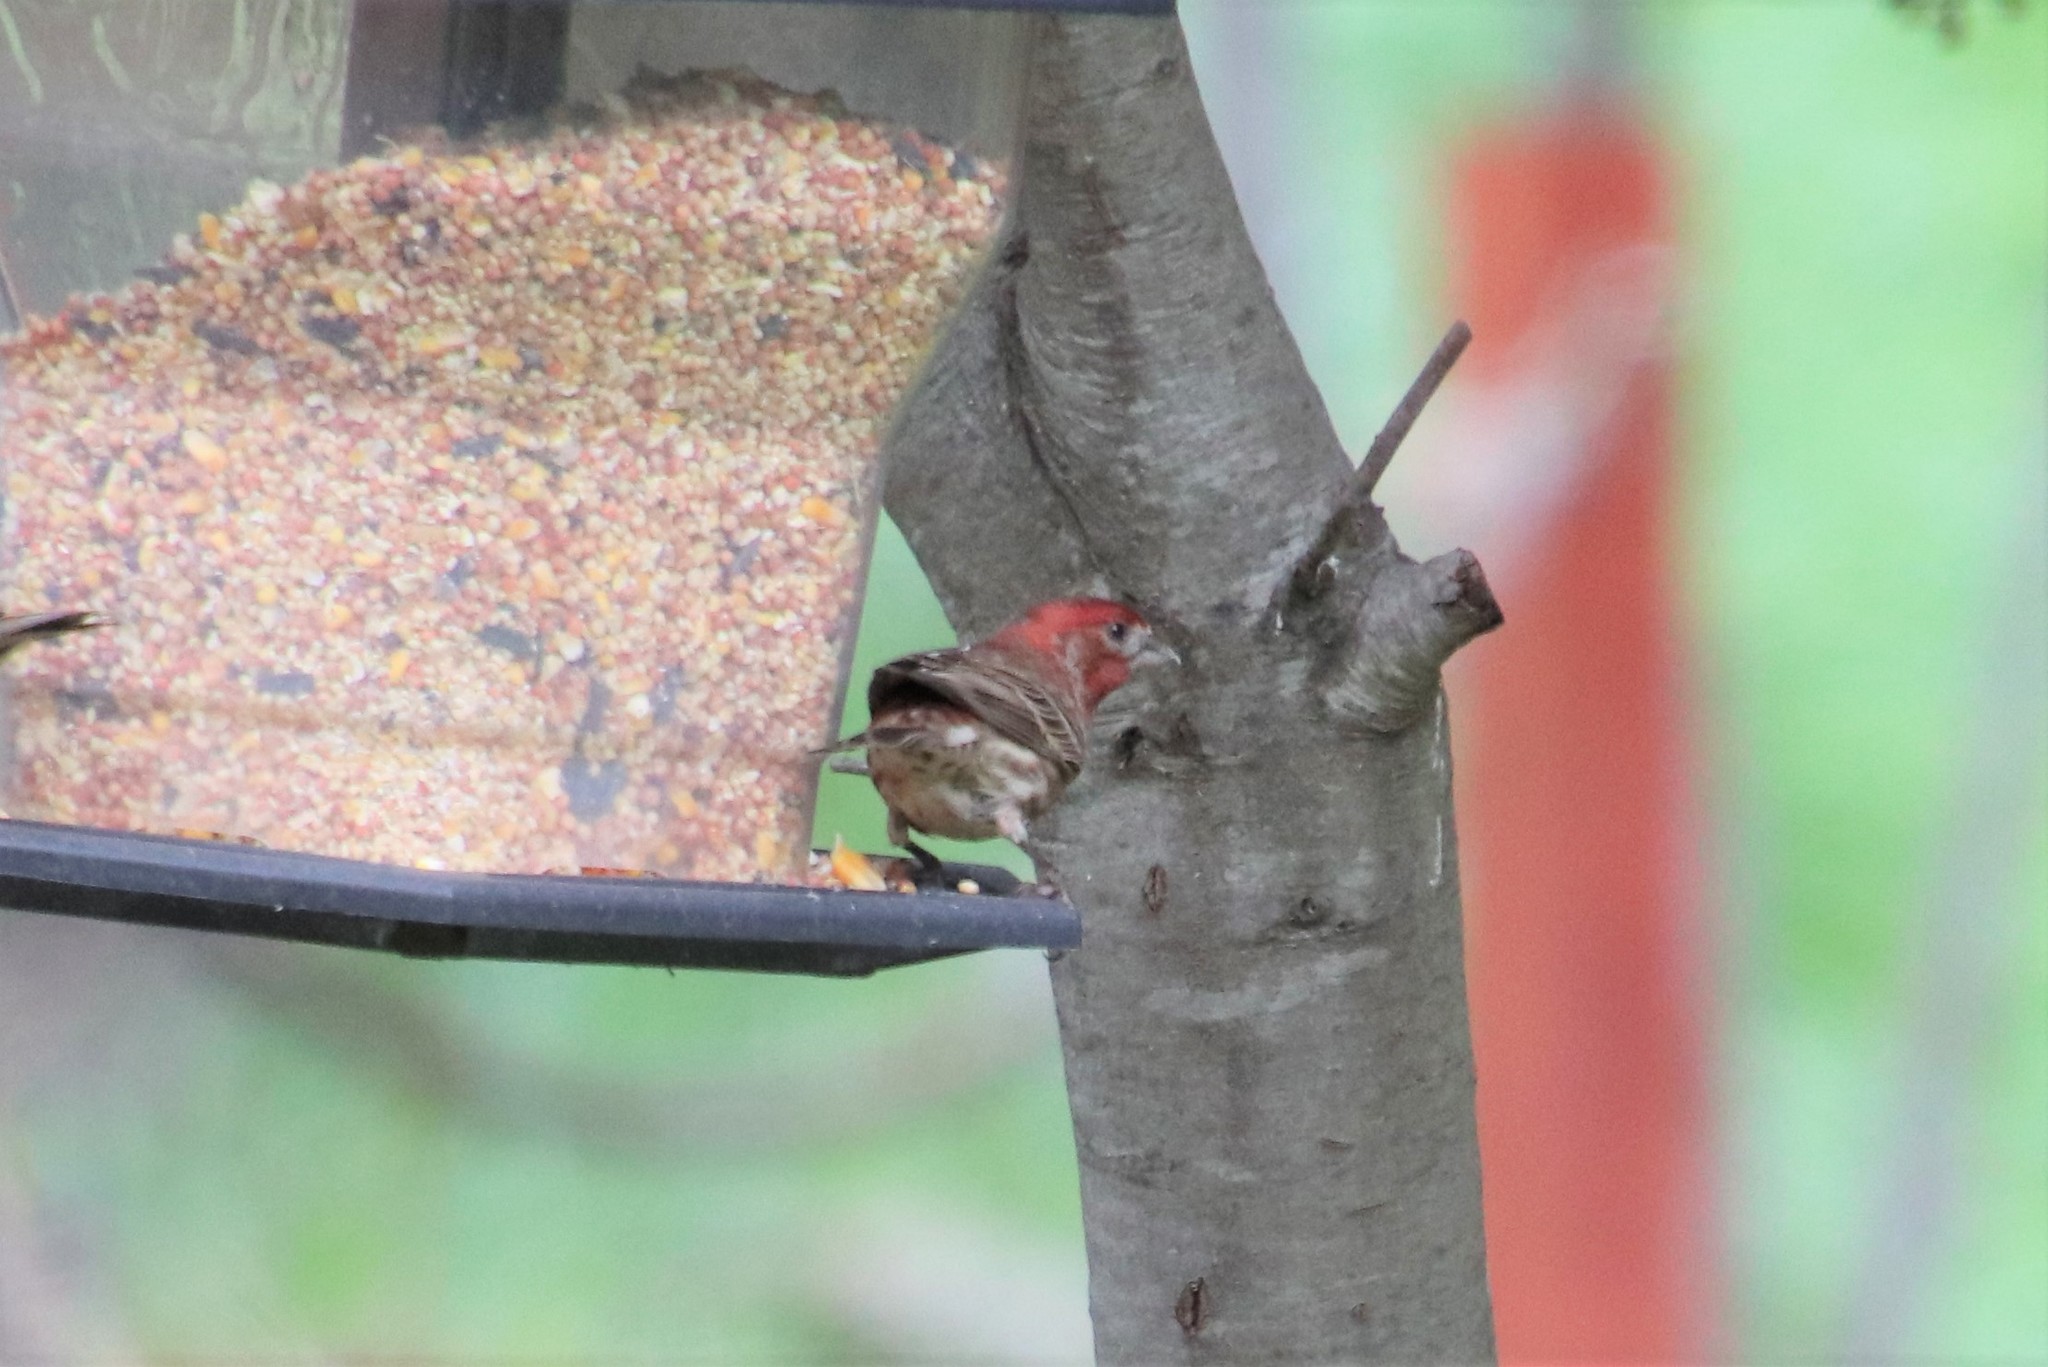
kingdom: Animalia
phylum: Chordata
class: Aves
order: Passeriformes
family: Fringillidae
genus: Haemorhous
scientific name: Haemorhous mexicanus
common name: House finch
